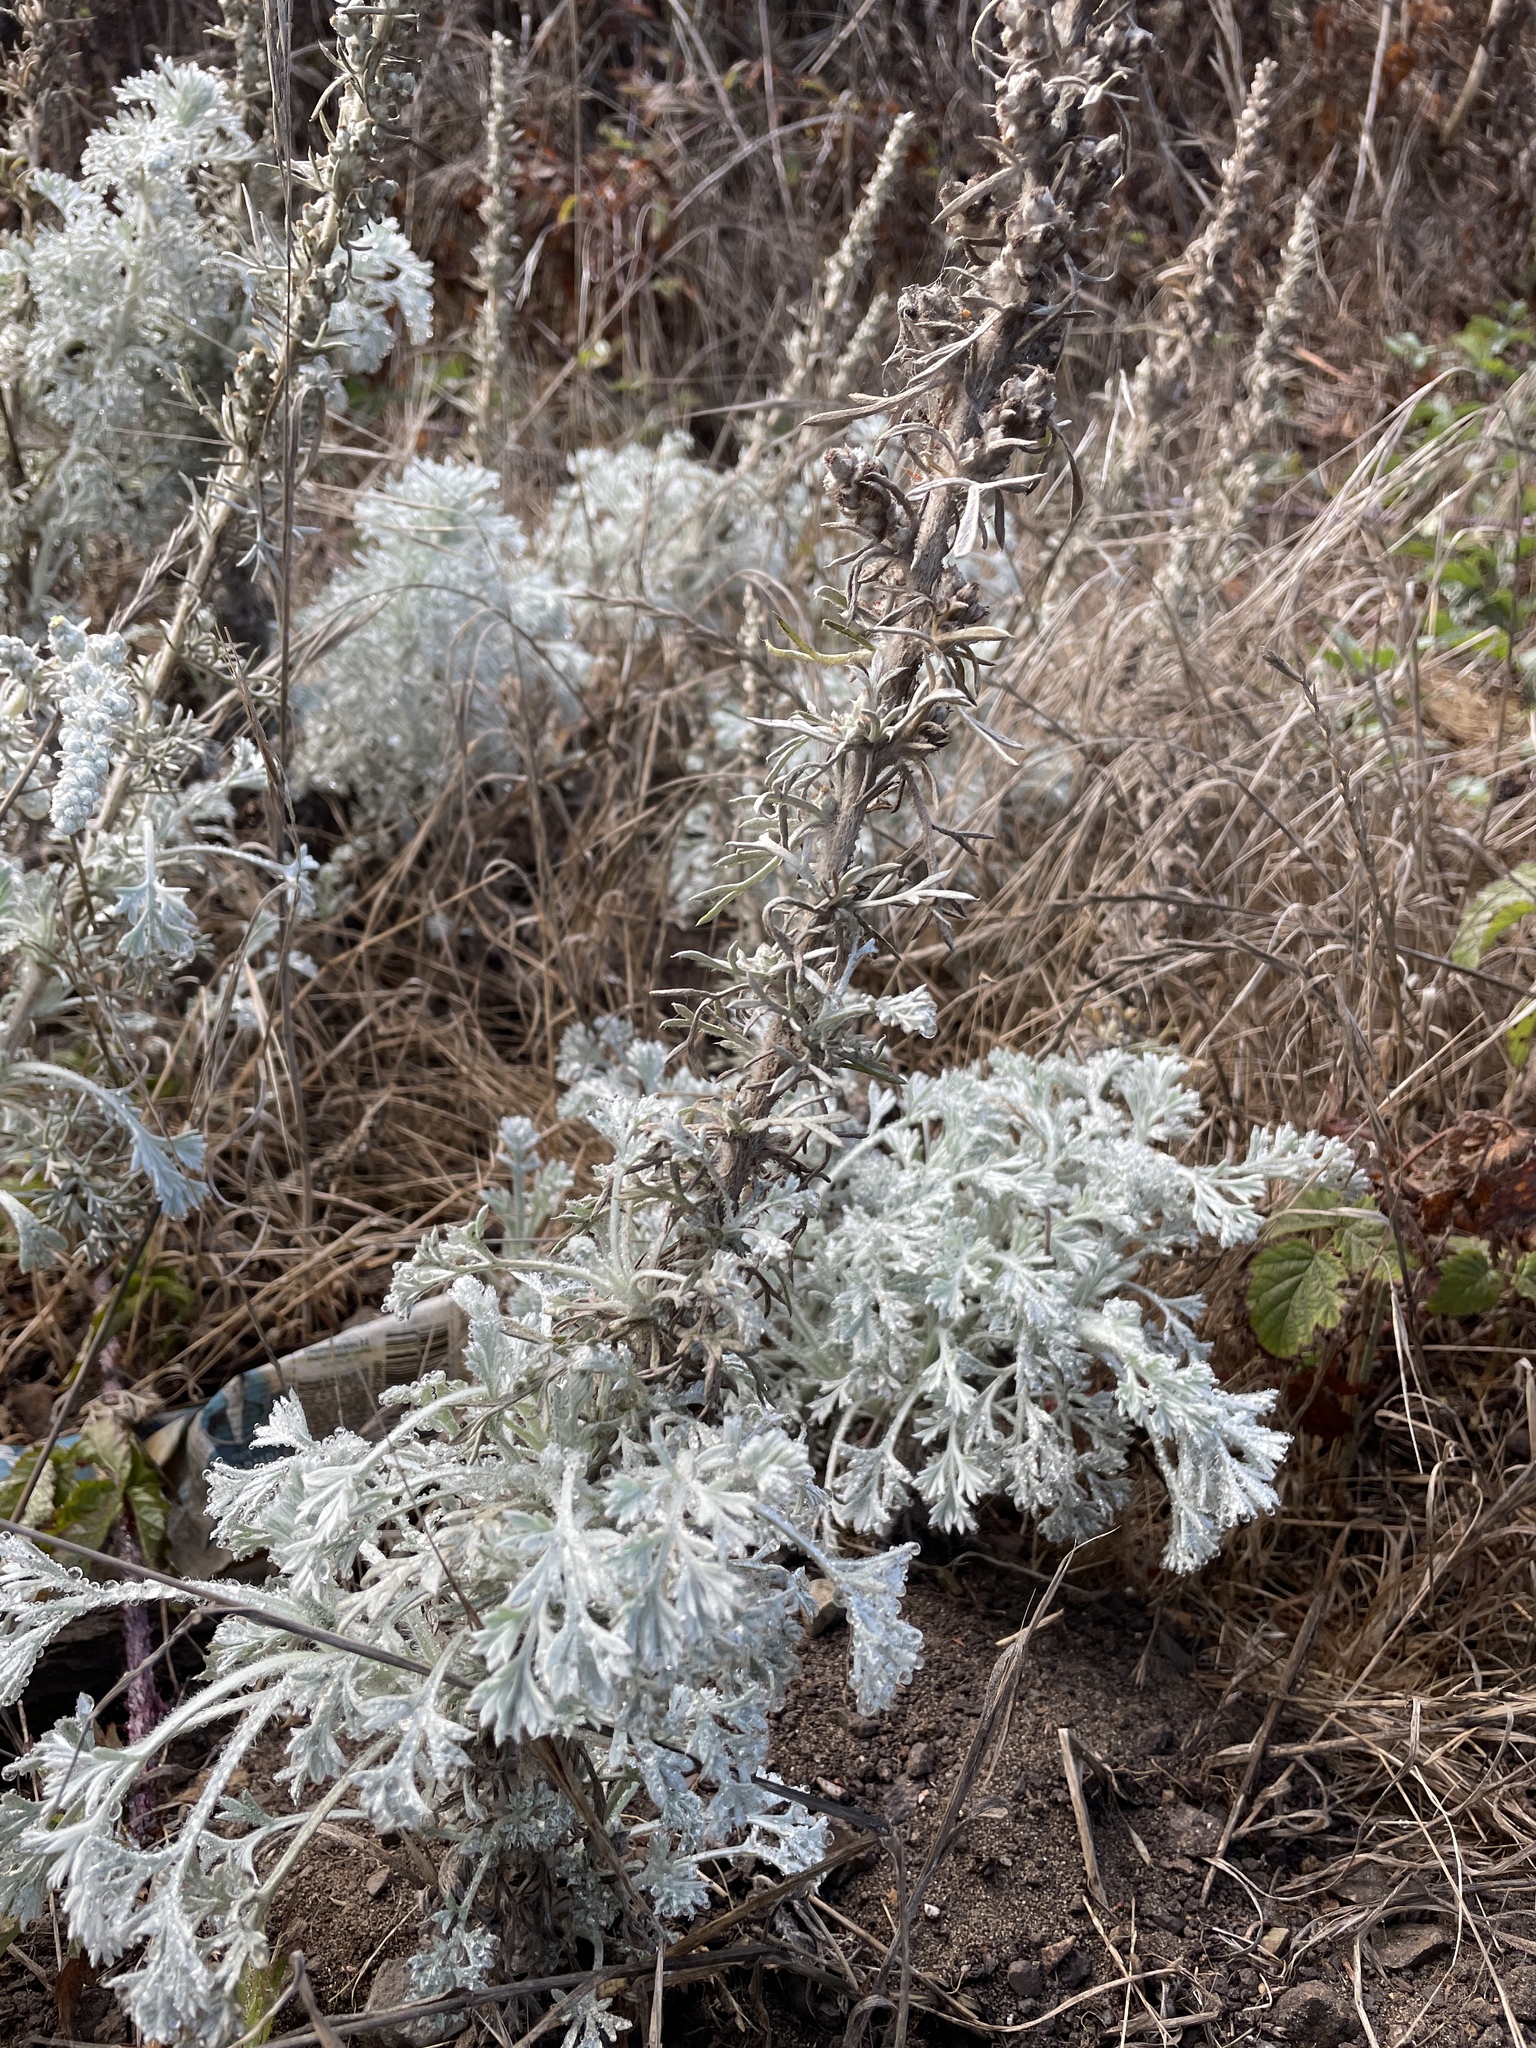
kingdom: Plantae
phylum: Tracheophyta
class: Magnoliopsida
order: Asterales
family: Asteraceae
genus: Artemisia
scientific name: Artemisia pycnocephala
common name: Coastal sagewort
